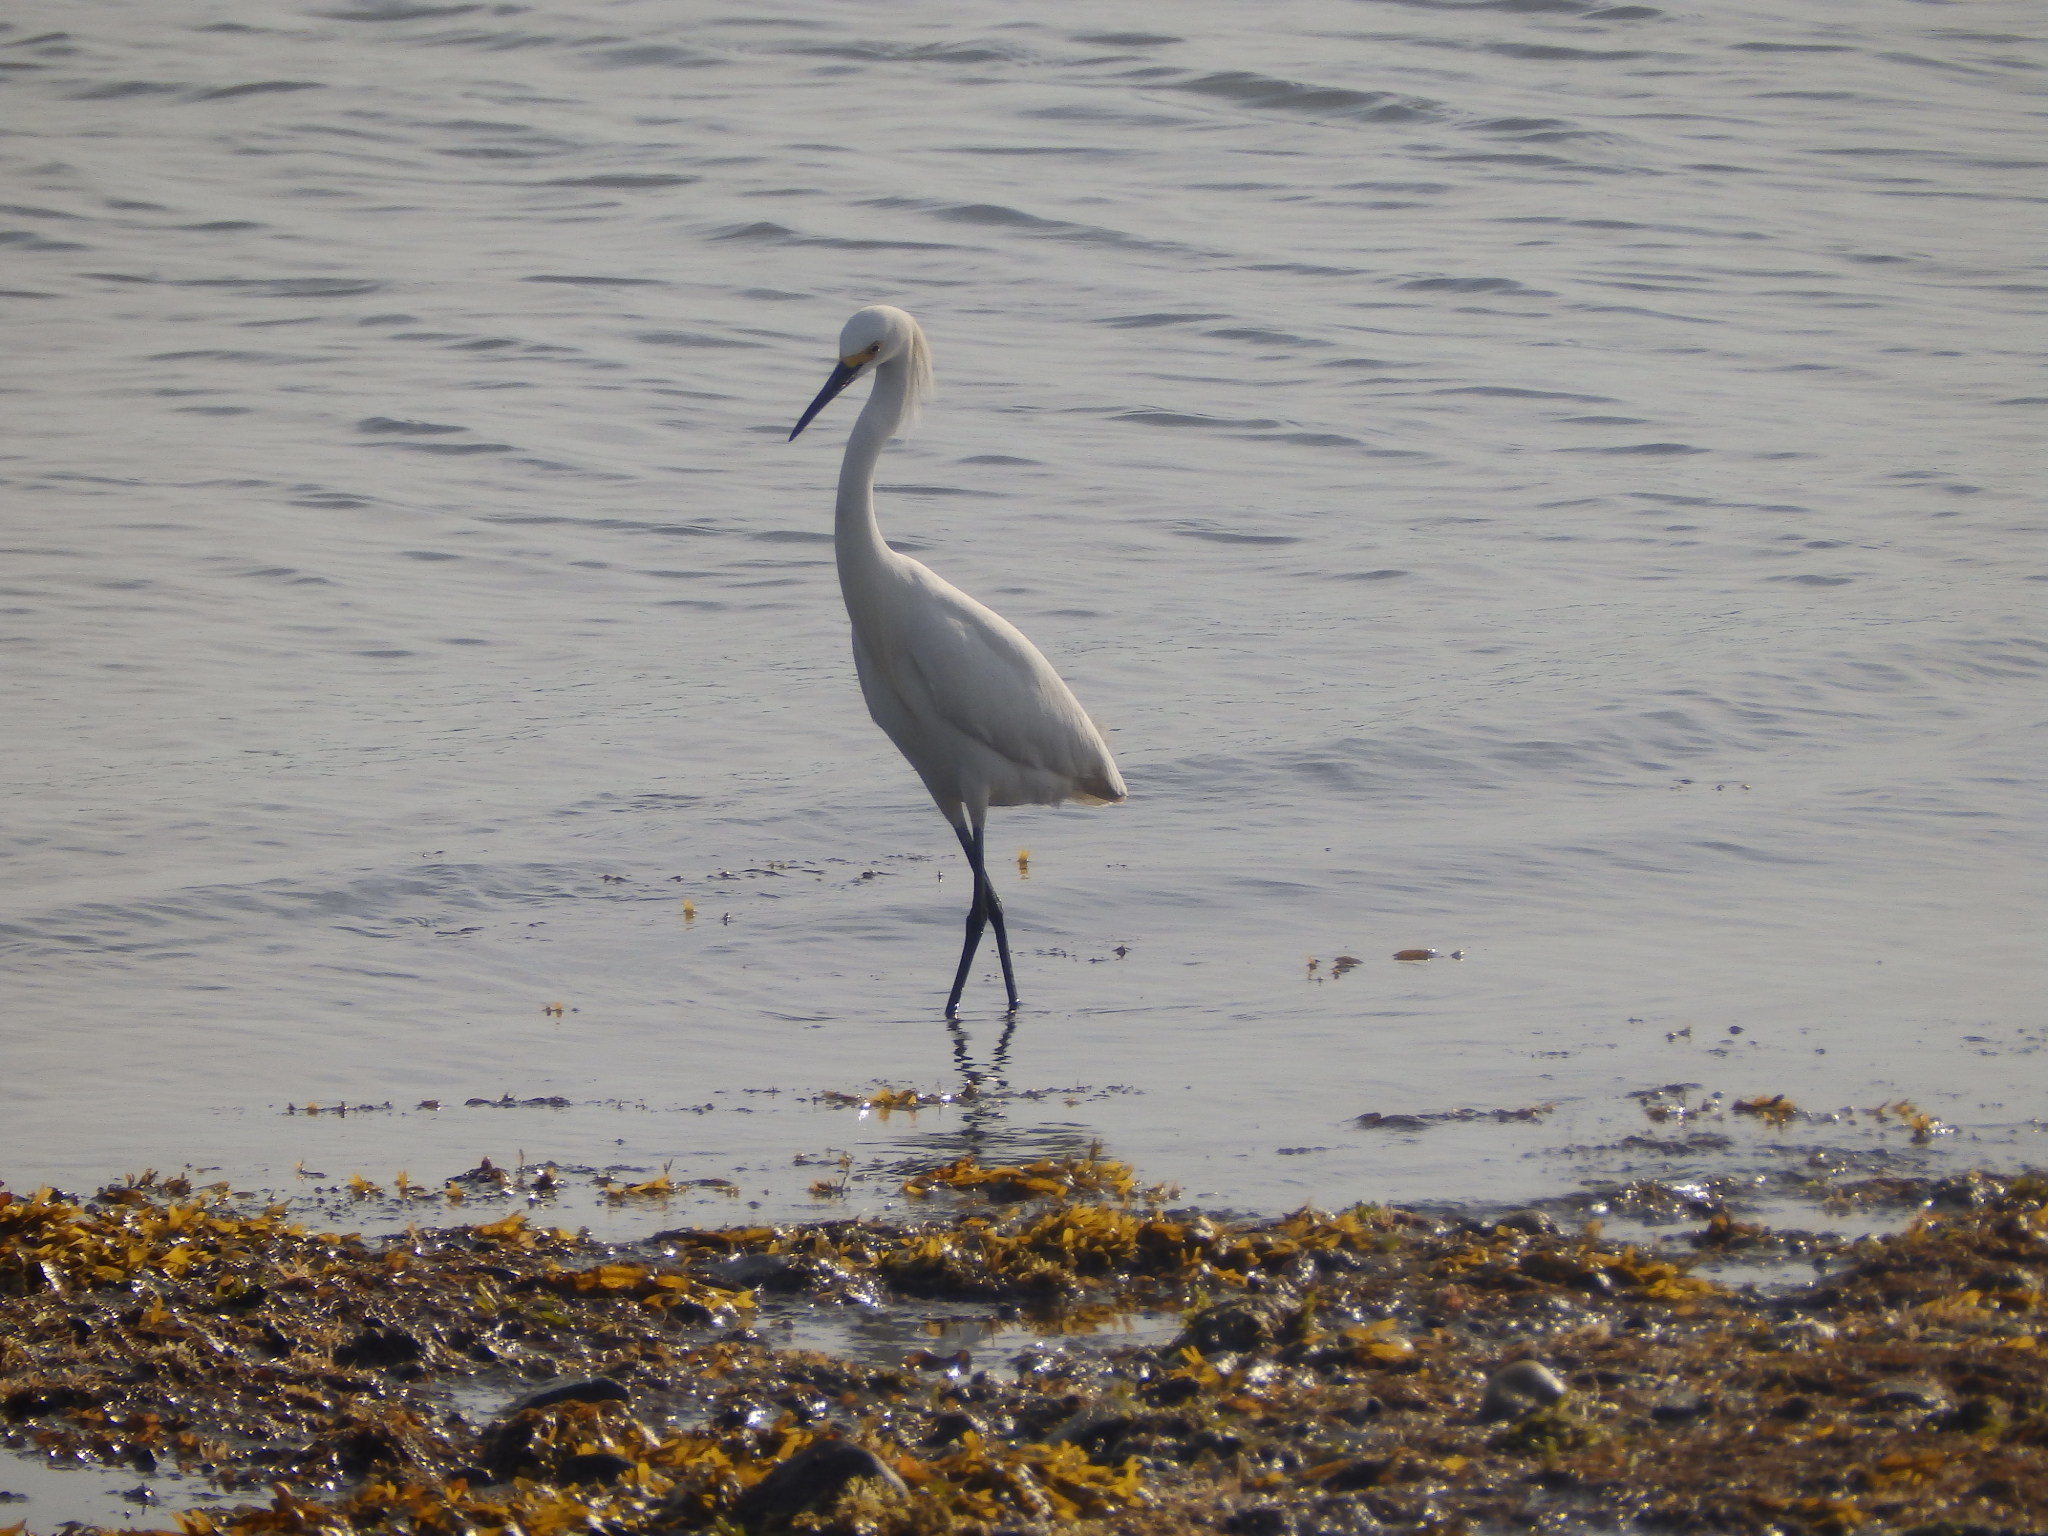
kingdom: Animalia
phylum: Chordata
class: Aves
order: Pelecaniformes
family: Ardeidae
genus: Egretta
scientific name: Egretta thula
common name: Snowy egret
